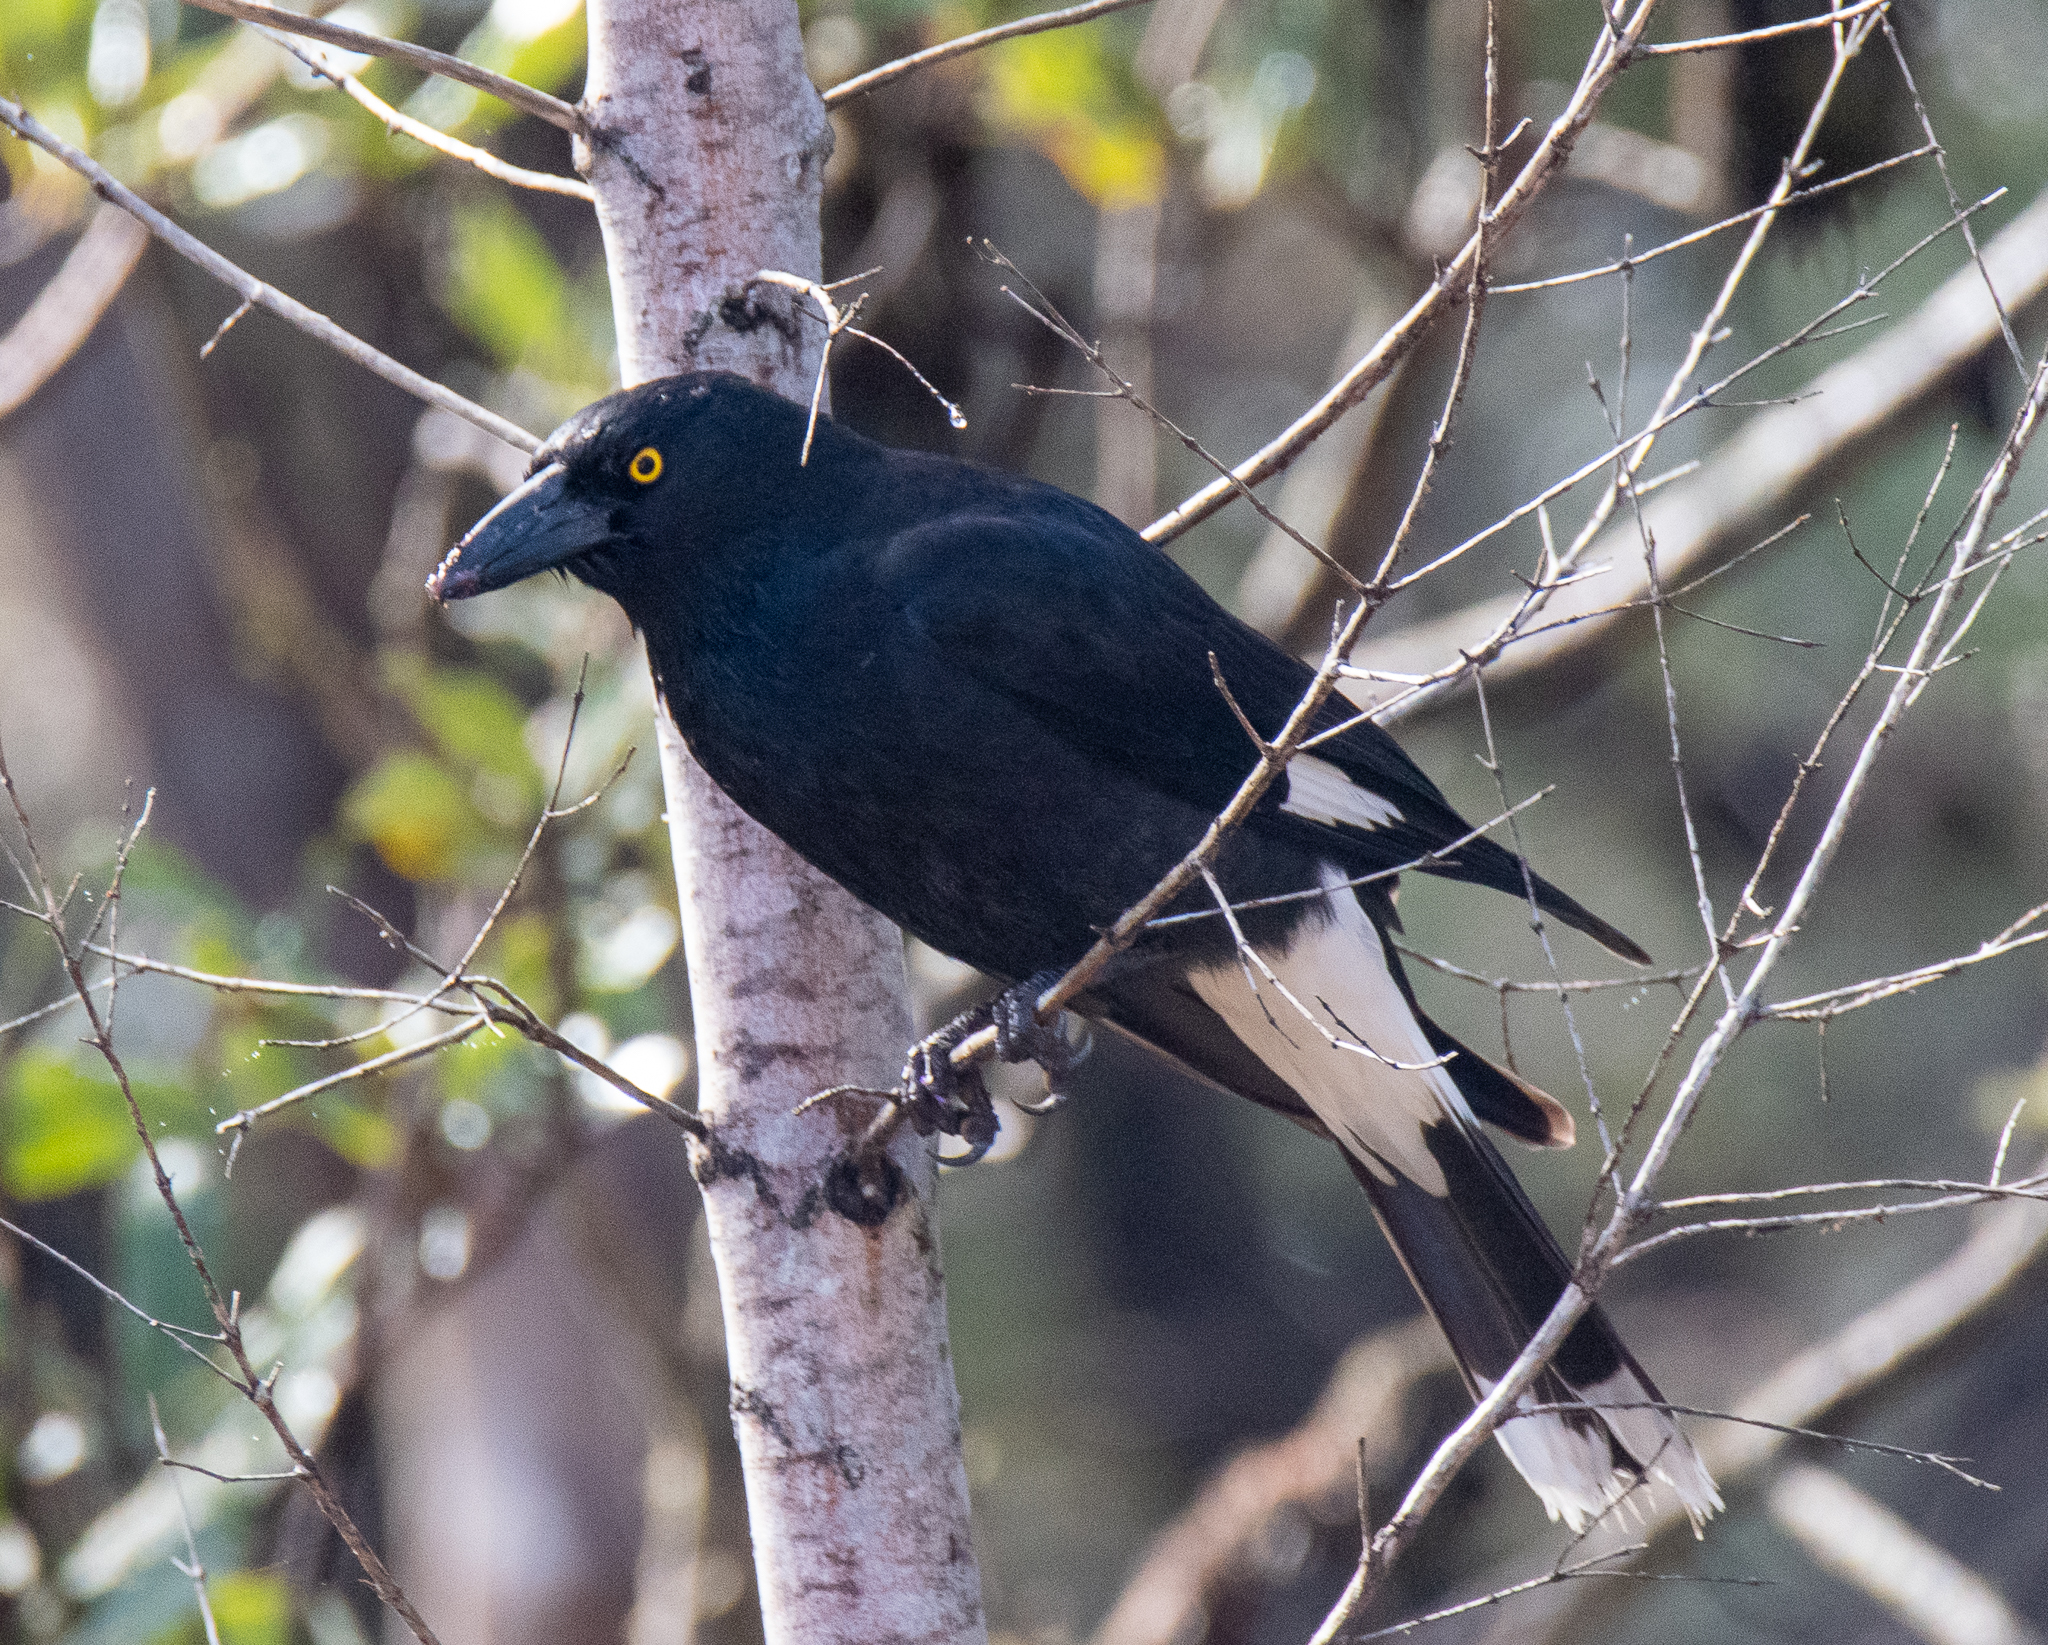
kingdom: Animalia
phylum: Chordata
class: Aves
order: Passeriformes
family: Cracticidae
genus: Strepera
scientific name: Strepera graculina
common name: Pied currawong
